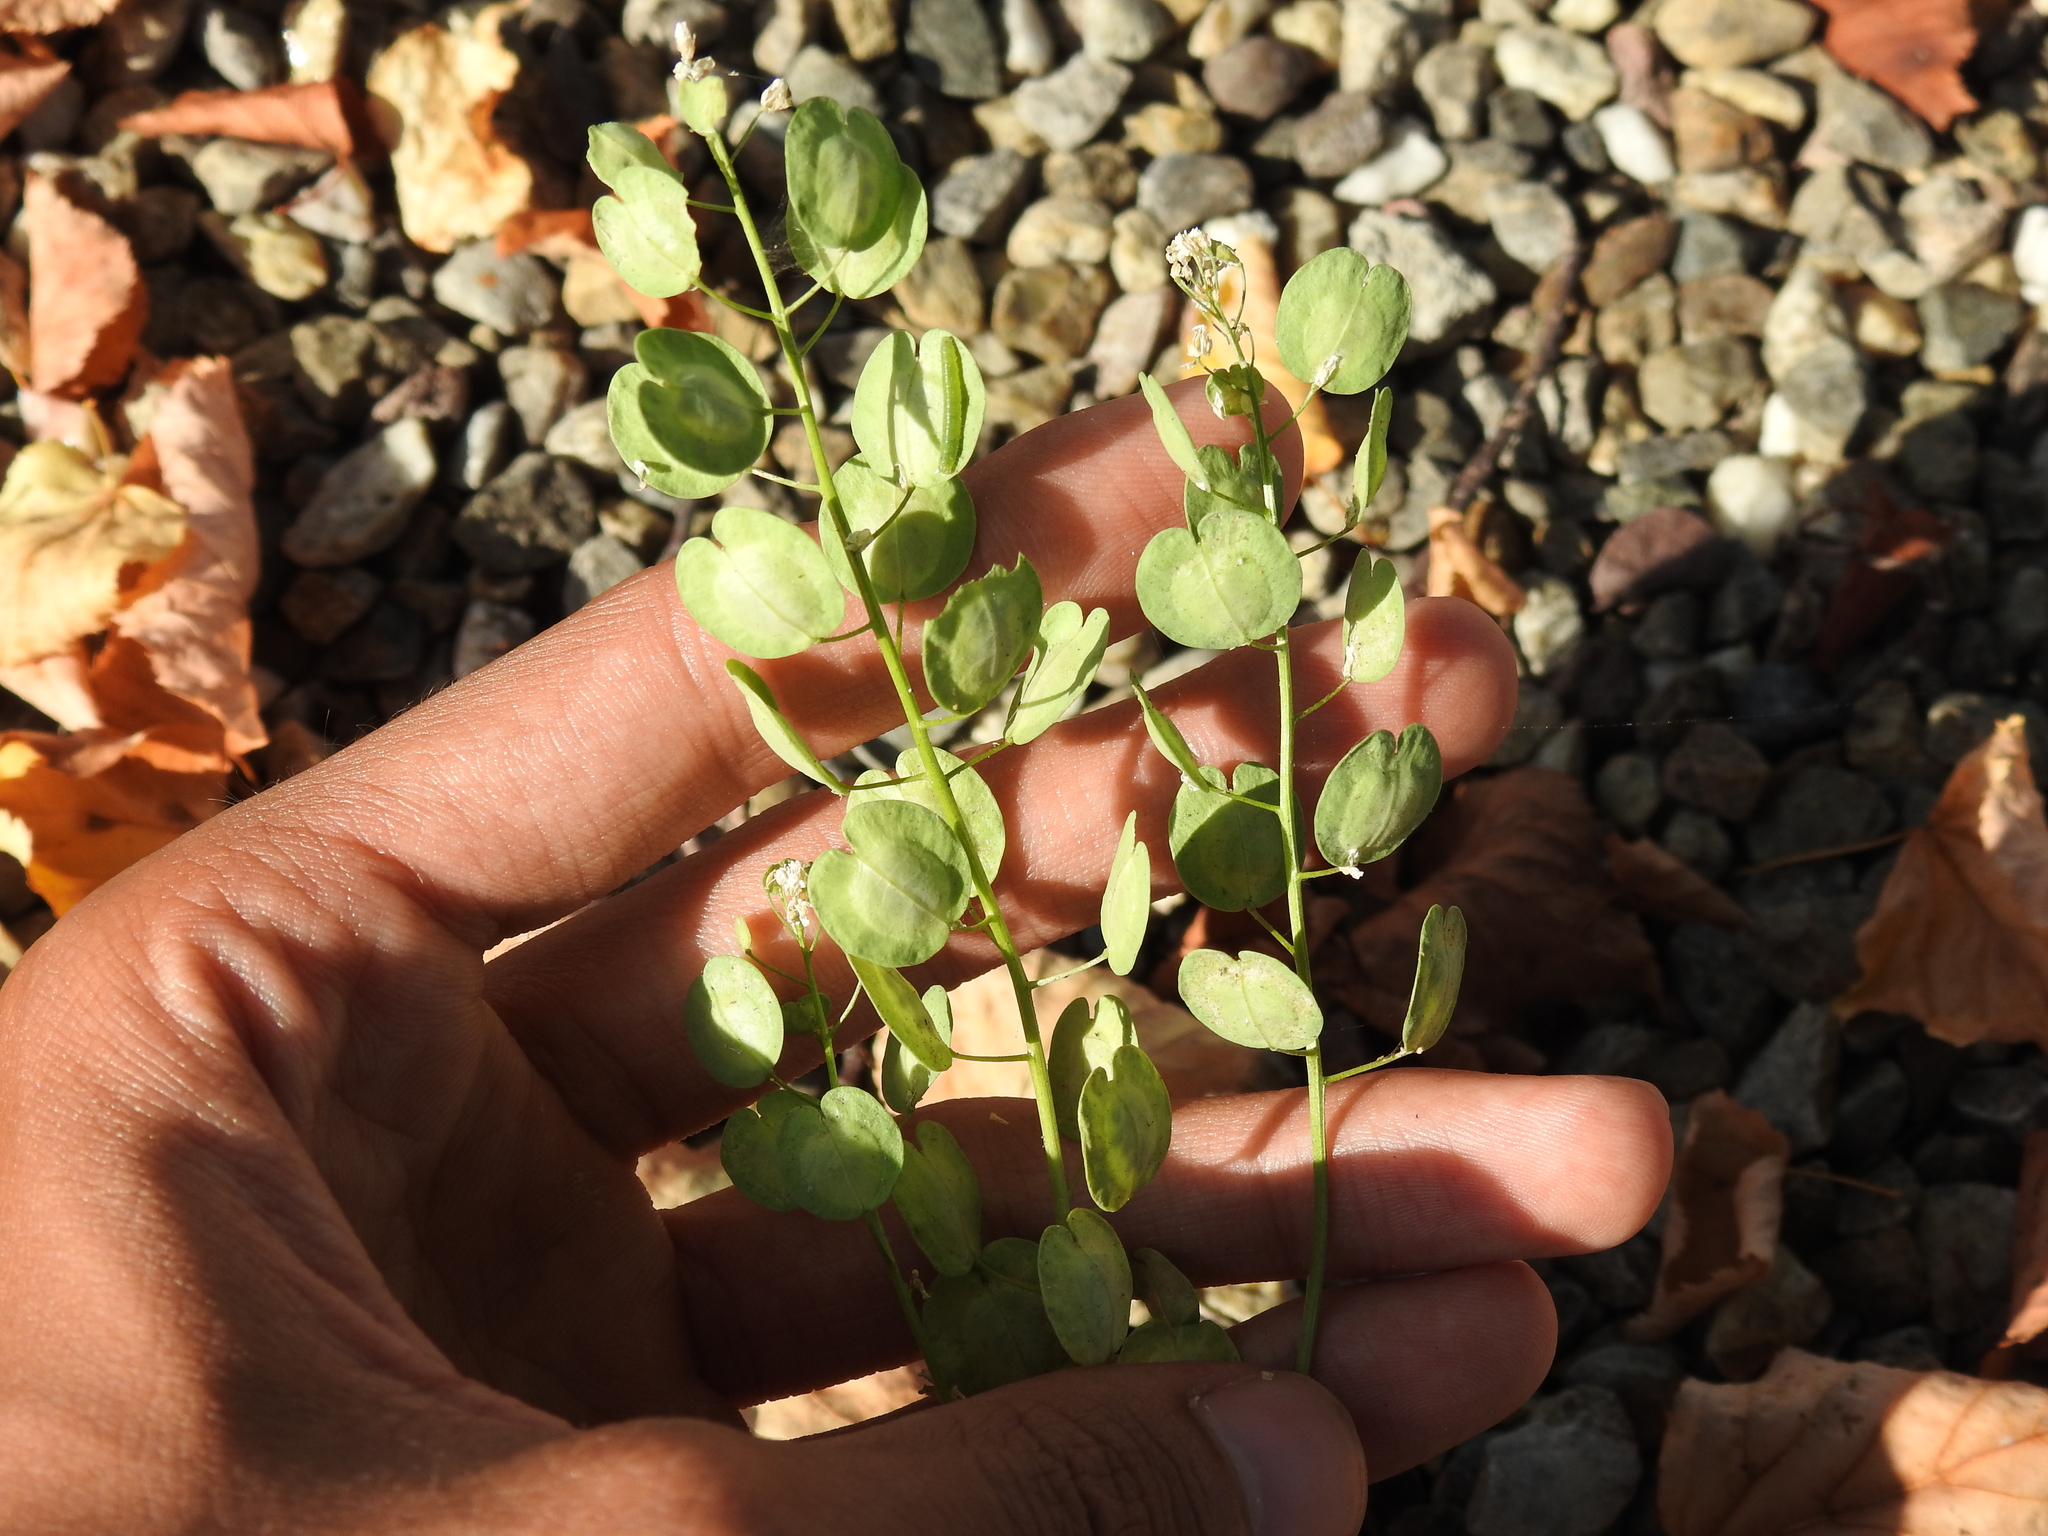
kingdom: Plantae
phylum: Tracheophyta
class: Magnoliopsida
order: Brassicales
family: Brassicaceae
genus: Thlaspi
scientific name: Thlaspi arvense
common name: Field pennycress
